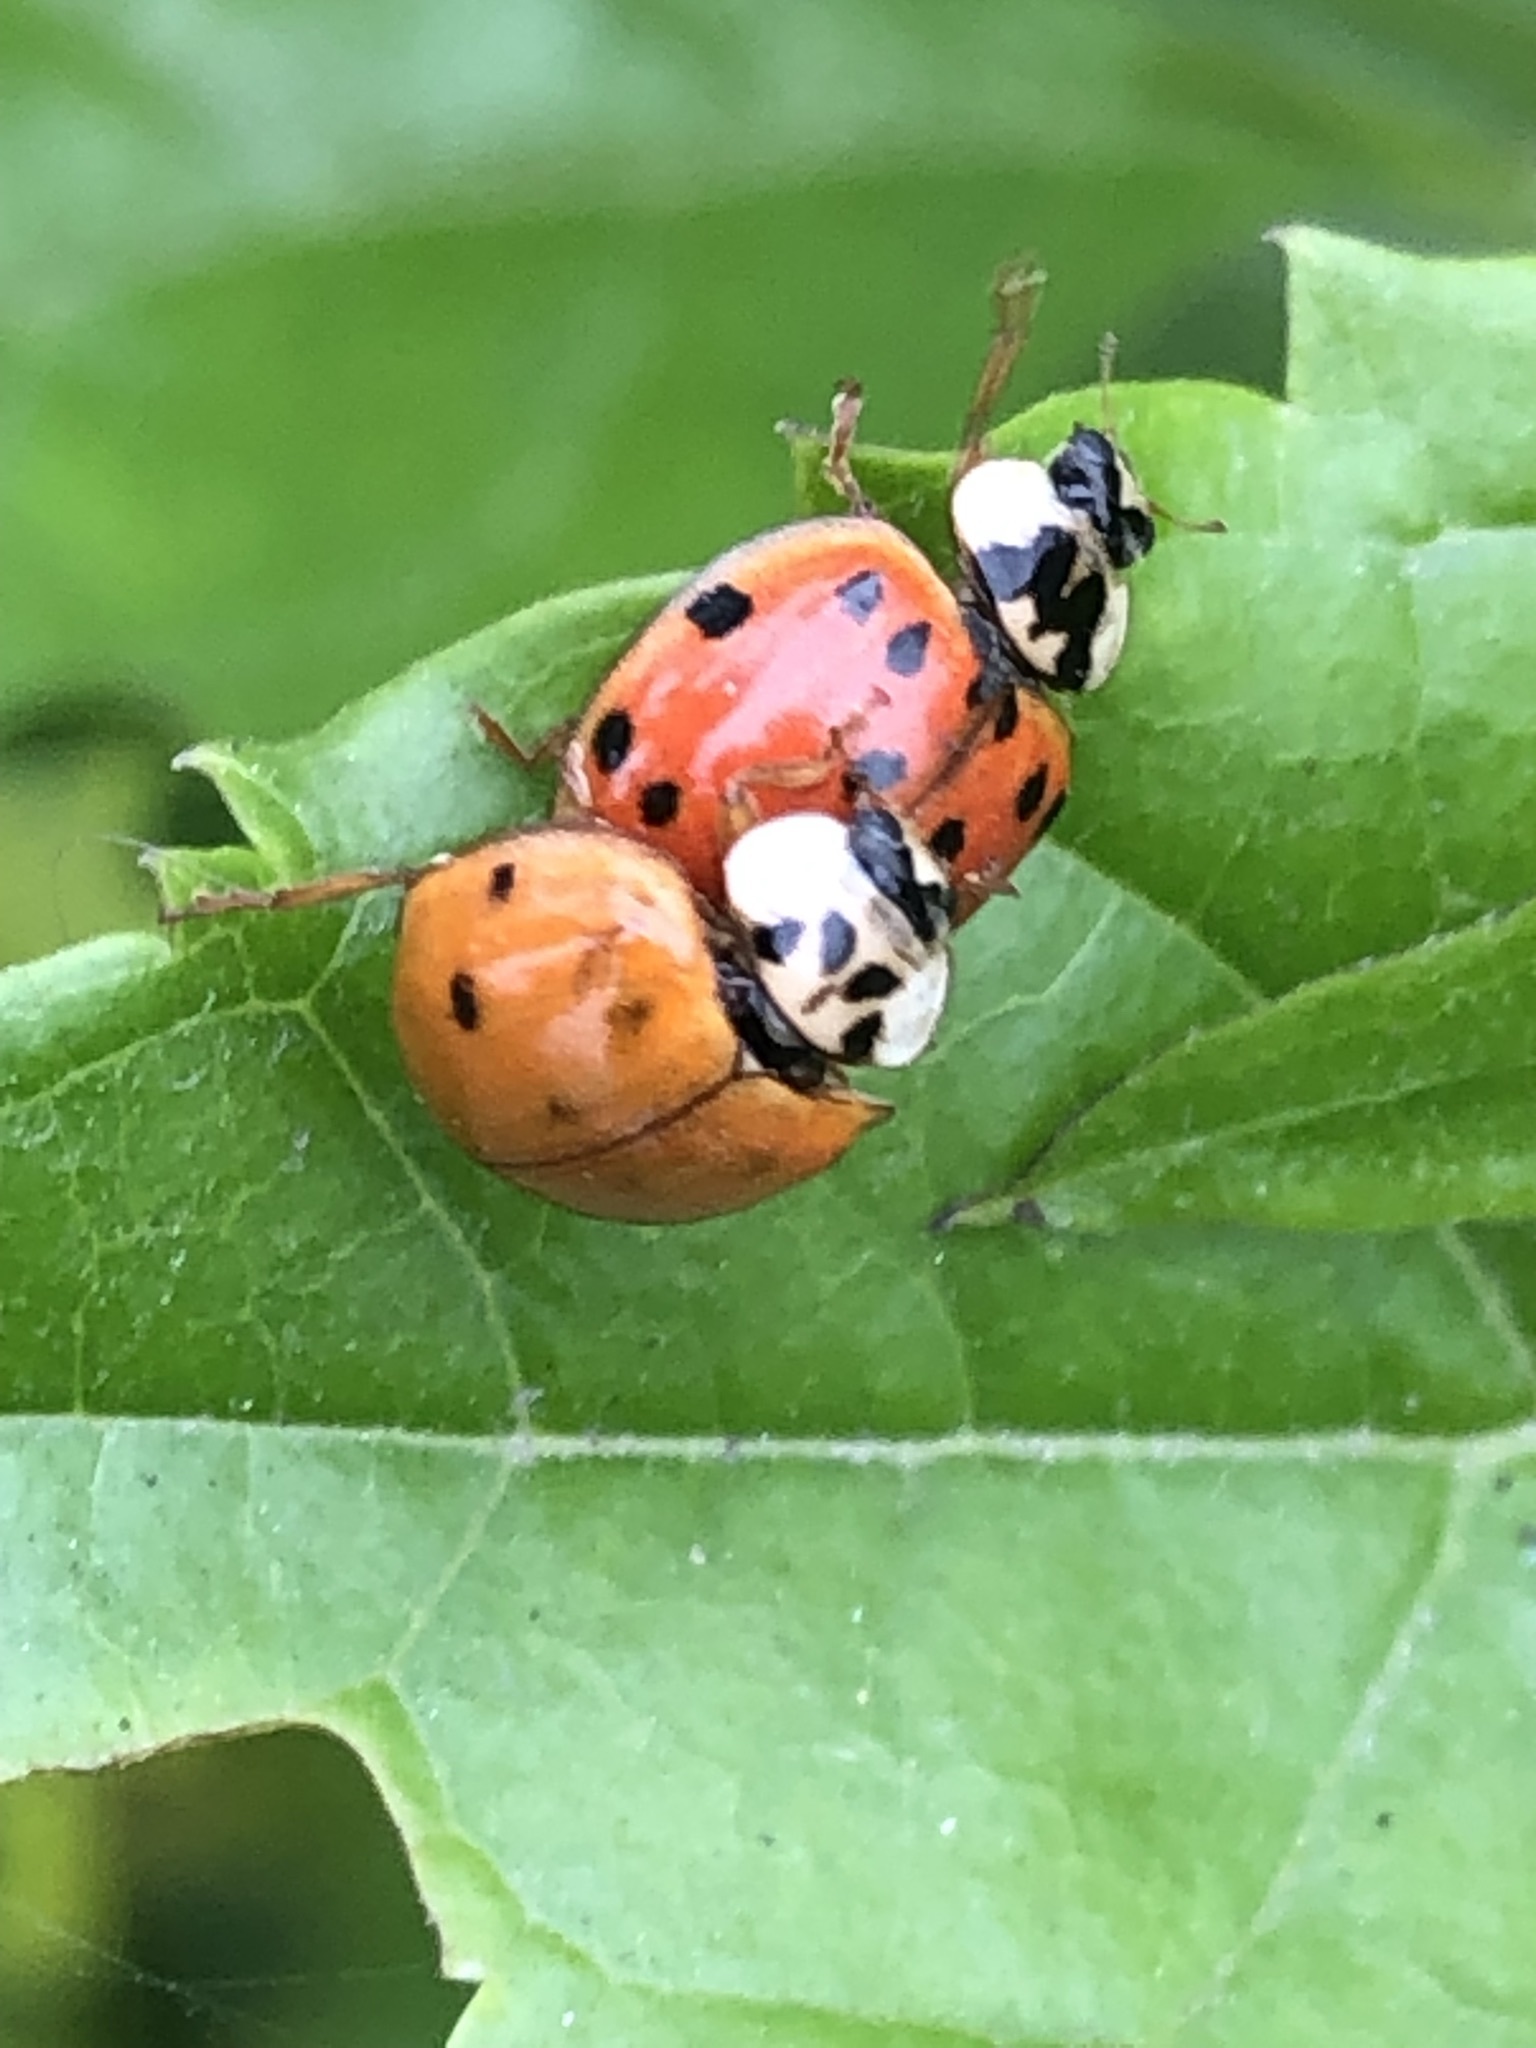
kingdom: Animalia
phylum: Arthropoda
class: Insecta
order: Coleoptera
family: Coccinellidae
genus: Harmonia
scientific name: Harmonia axyridis
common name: Harlequin ladybird
